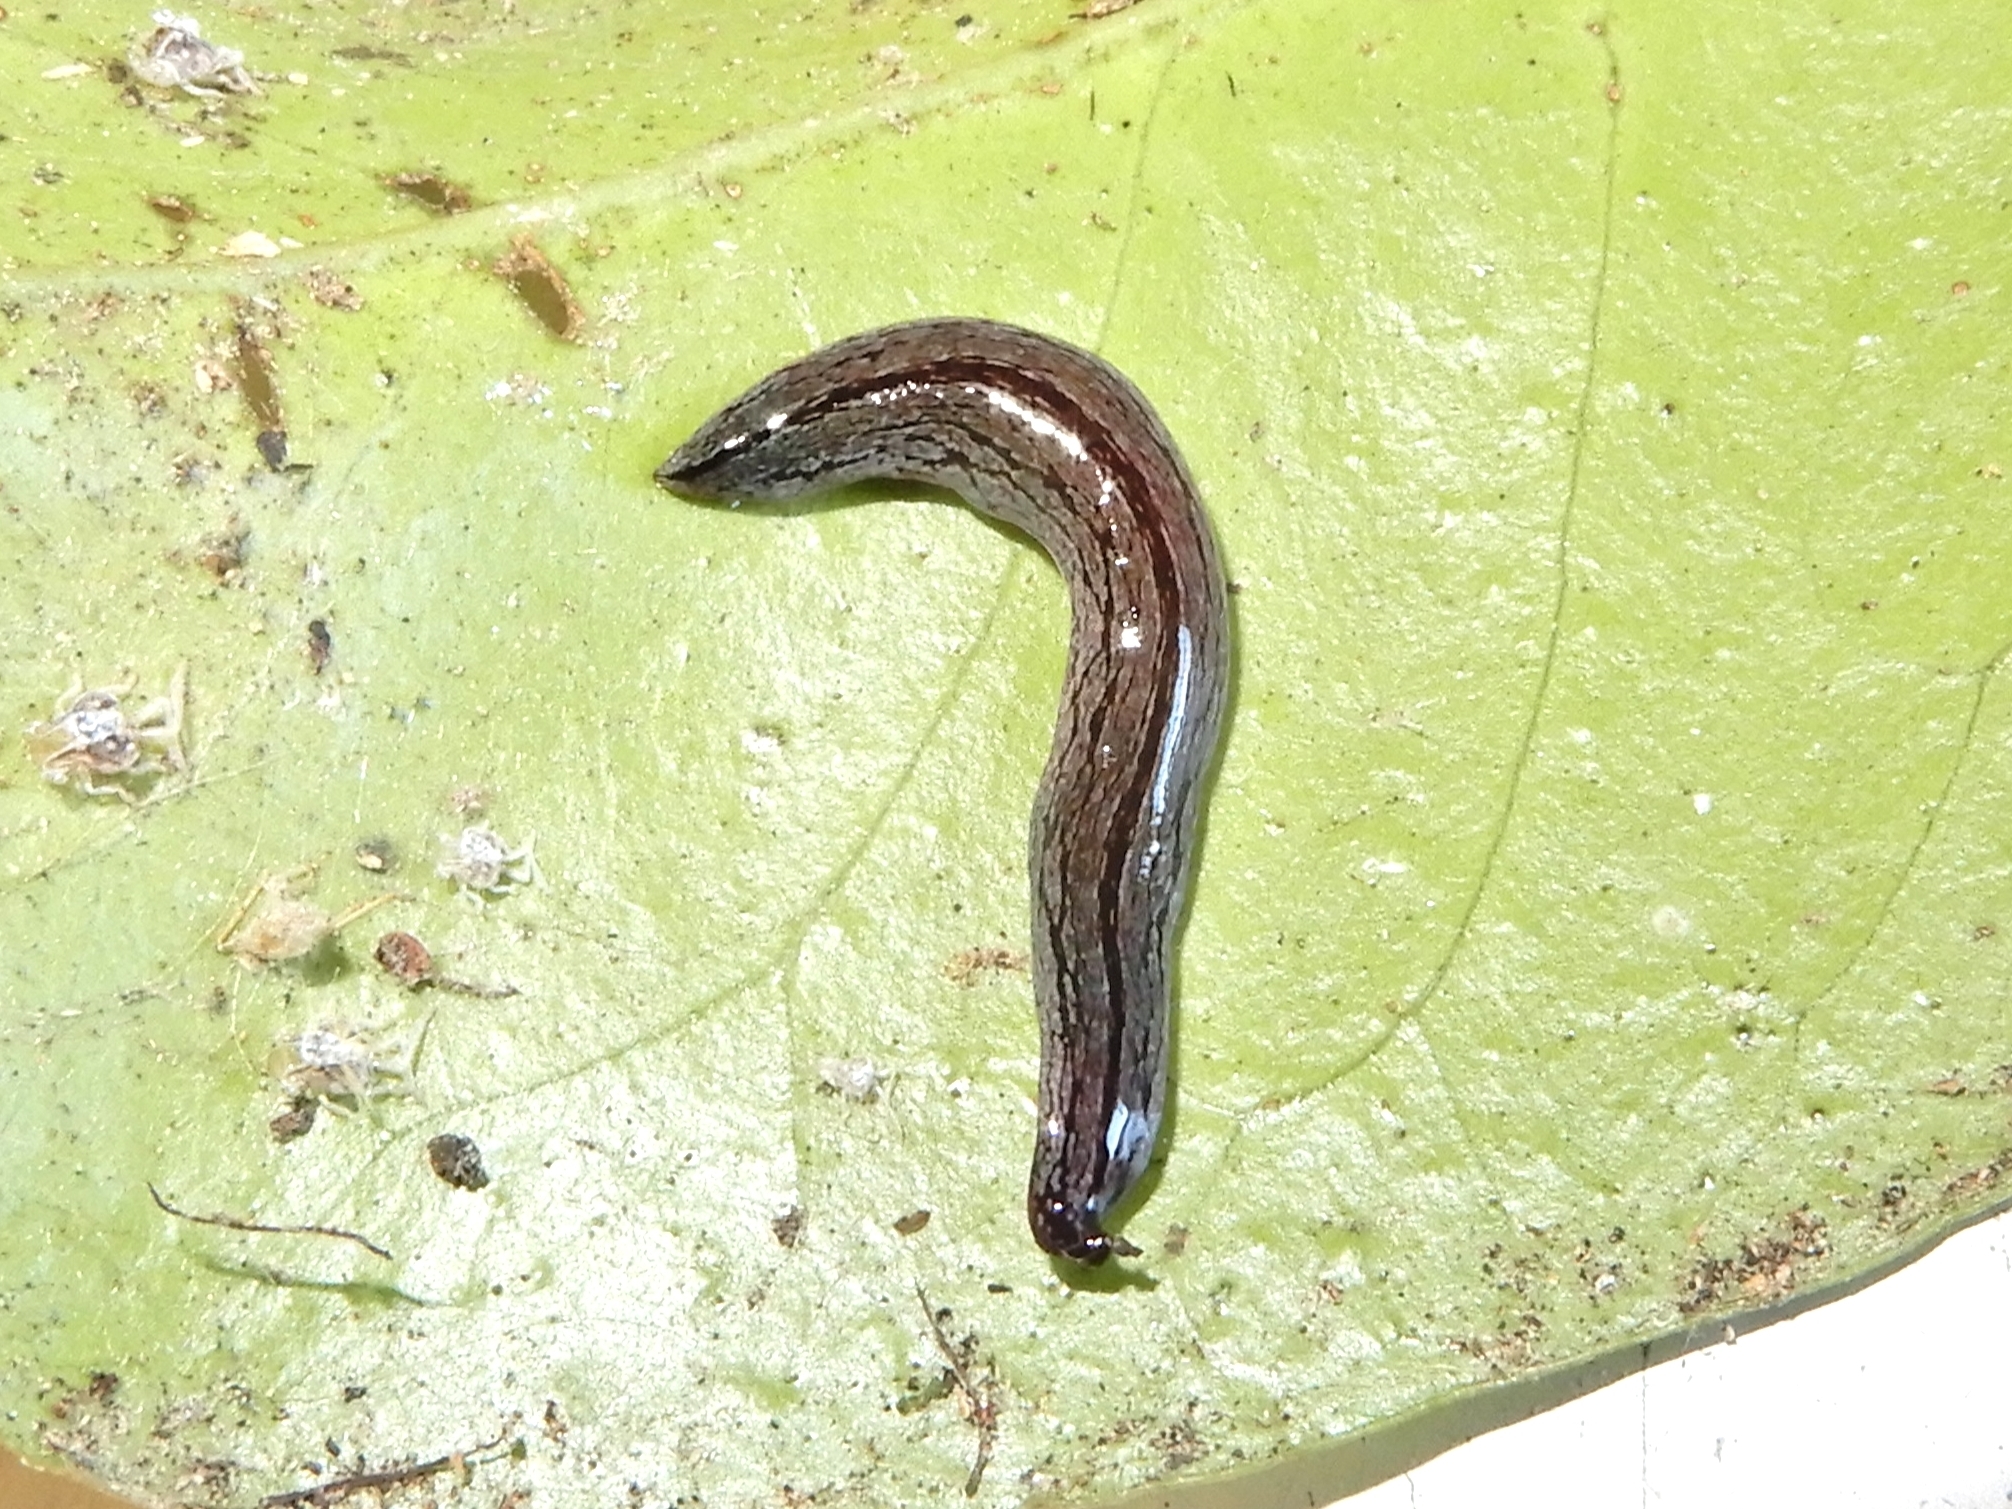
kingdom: Animalia
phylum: Platyhelminthes
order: Tricladida
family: Geoplanidae
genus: Artioposthia
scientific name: Artioposthia exulans
